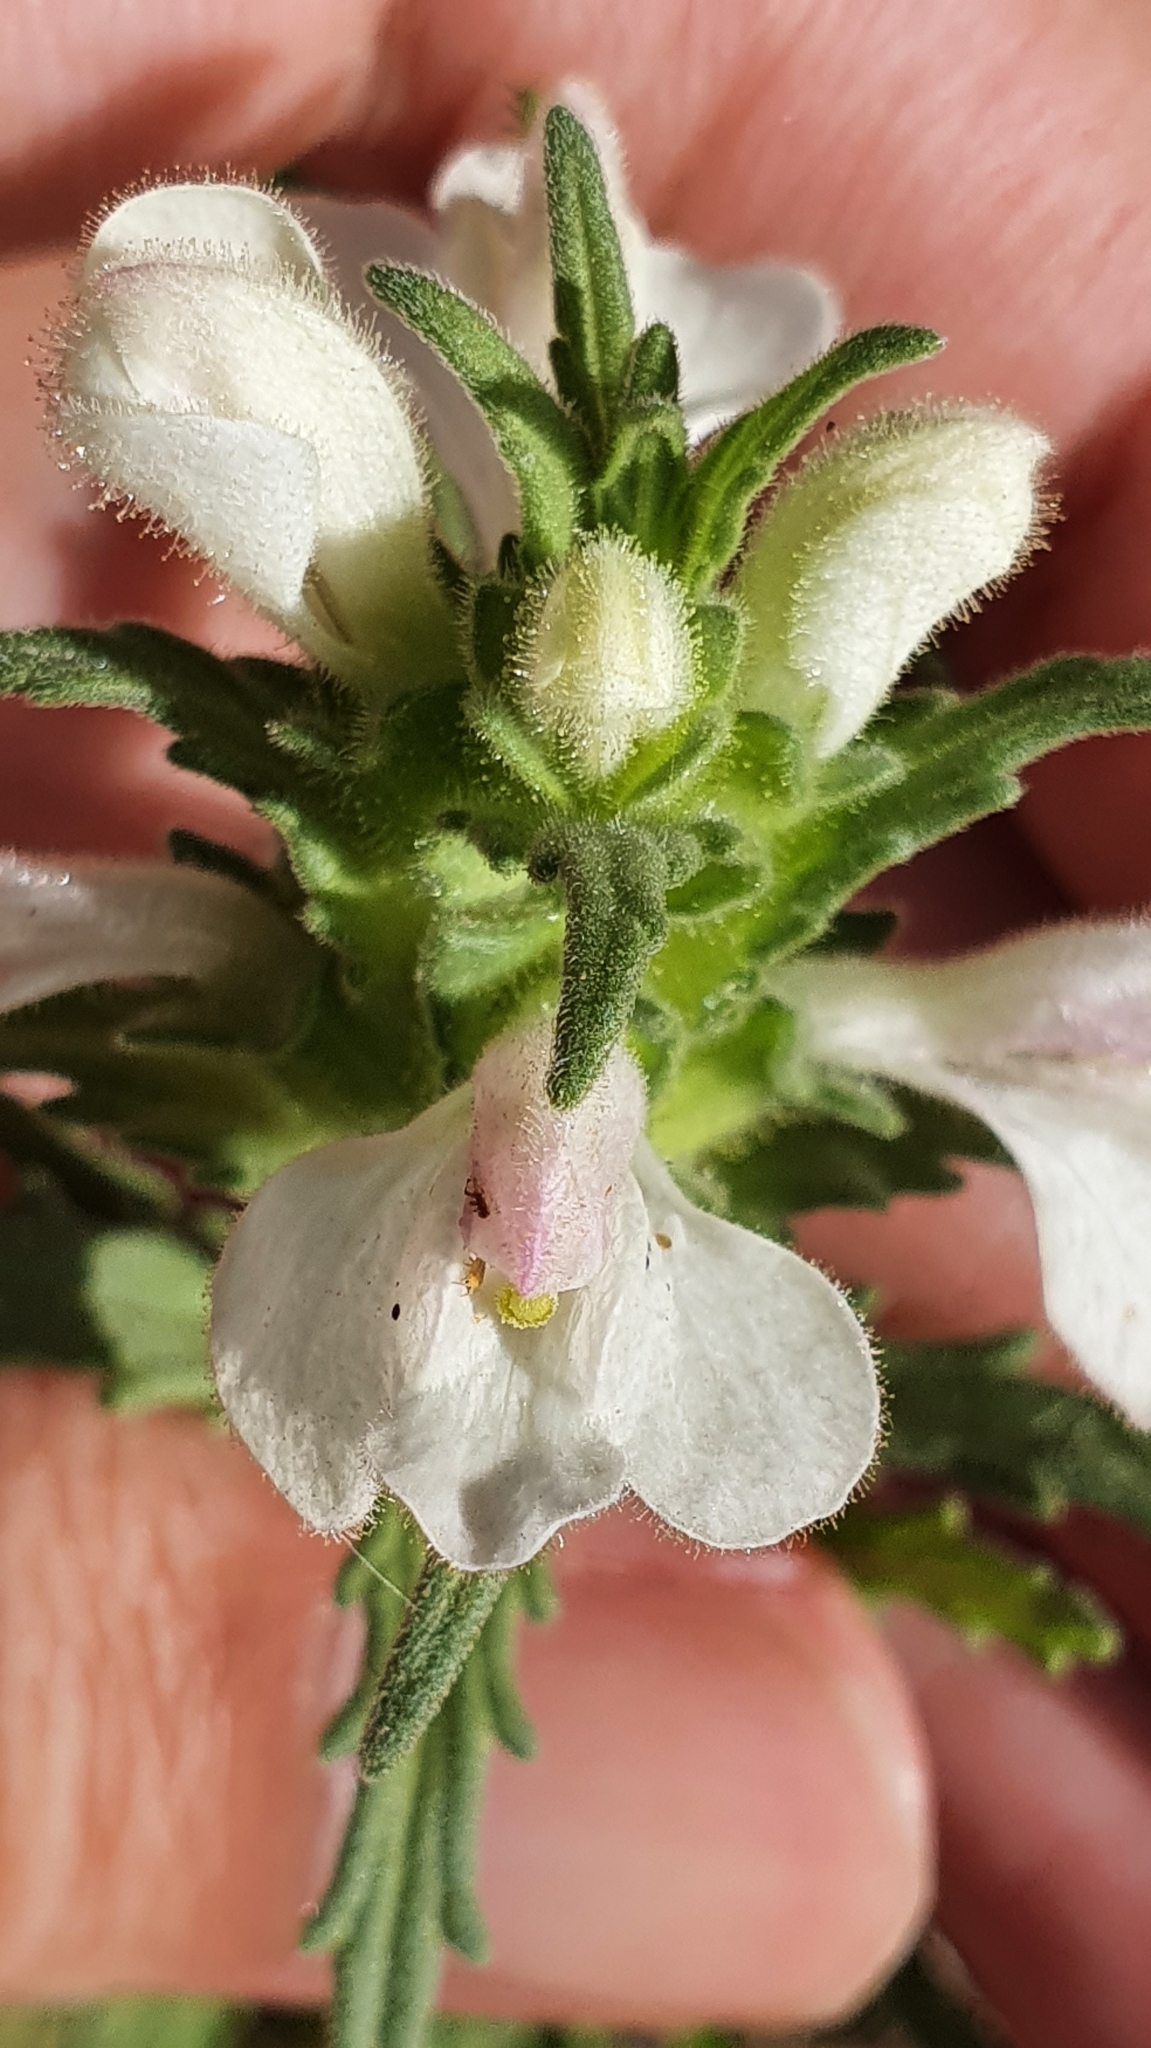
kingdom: Plantae
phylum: Tracheophyta
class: Magnoliopsida
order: Lamiales
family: Orobanchaceae
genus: Bellardia
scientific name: Bellardia trixago
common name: Mediterranean lineseed
